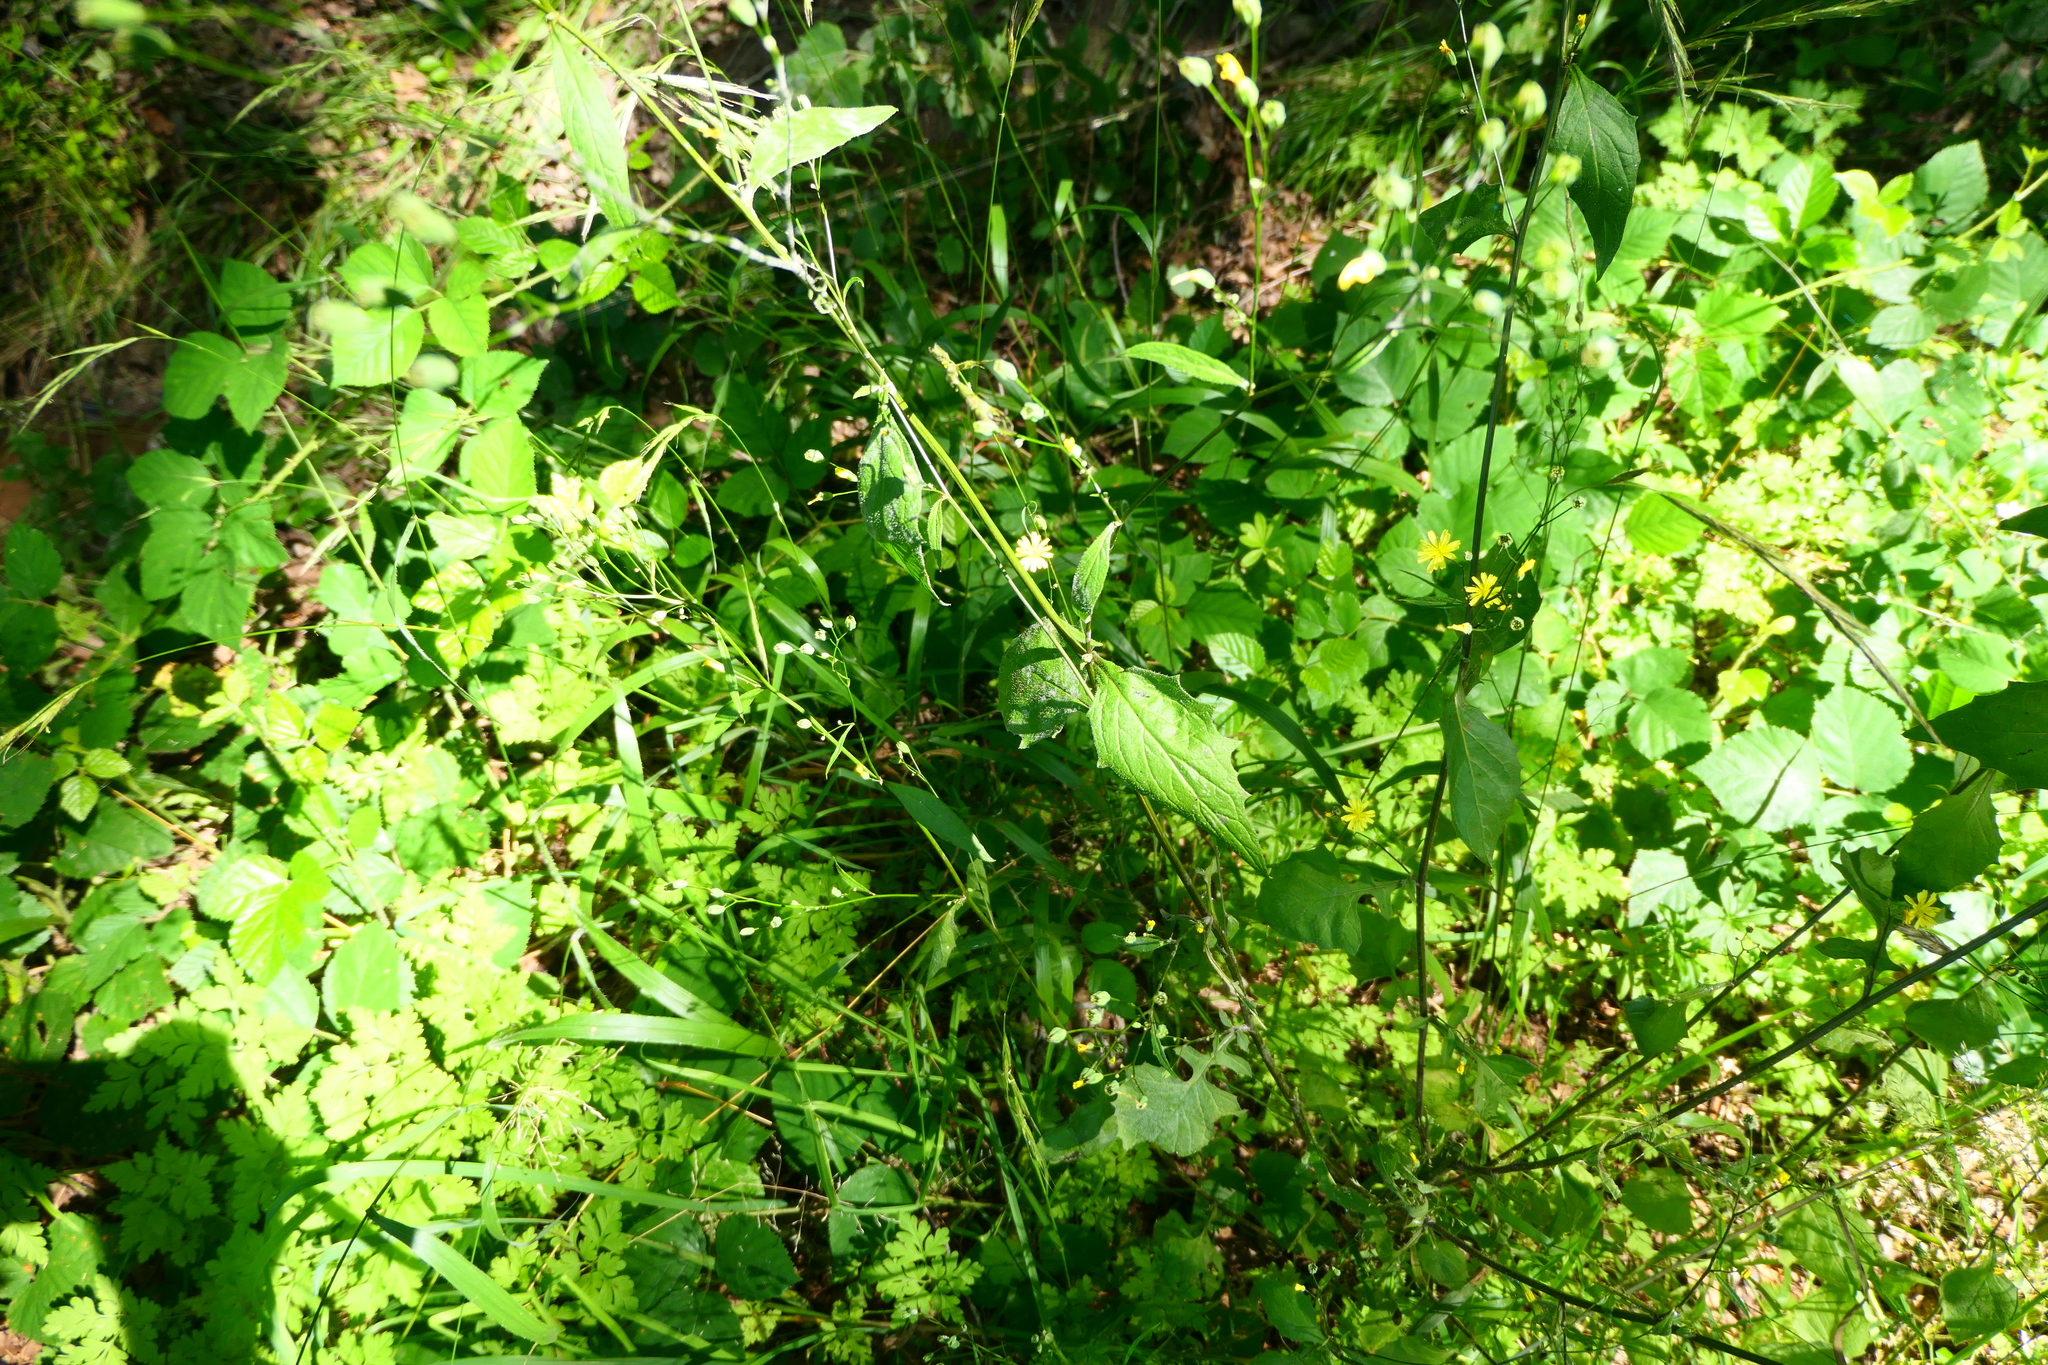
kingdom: Plantae
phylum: Tracheophyta
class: Magnoliopsida
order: Asterales
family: Asteraceae
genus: Lapsana
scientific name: Lapsana communis
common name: Nipplewort
